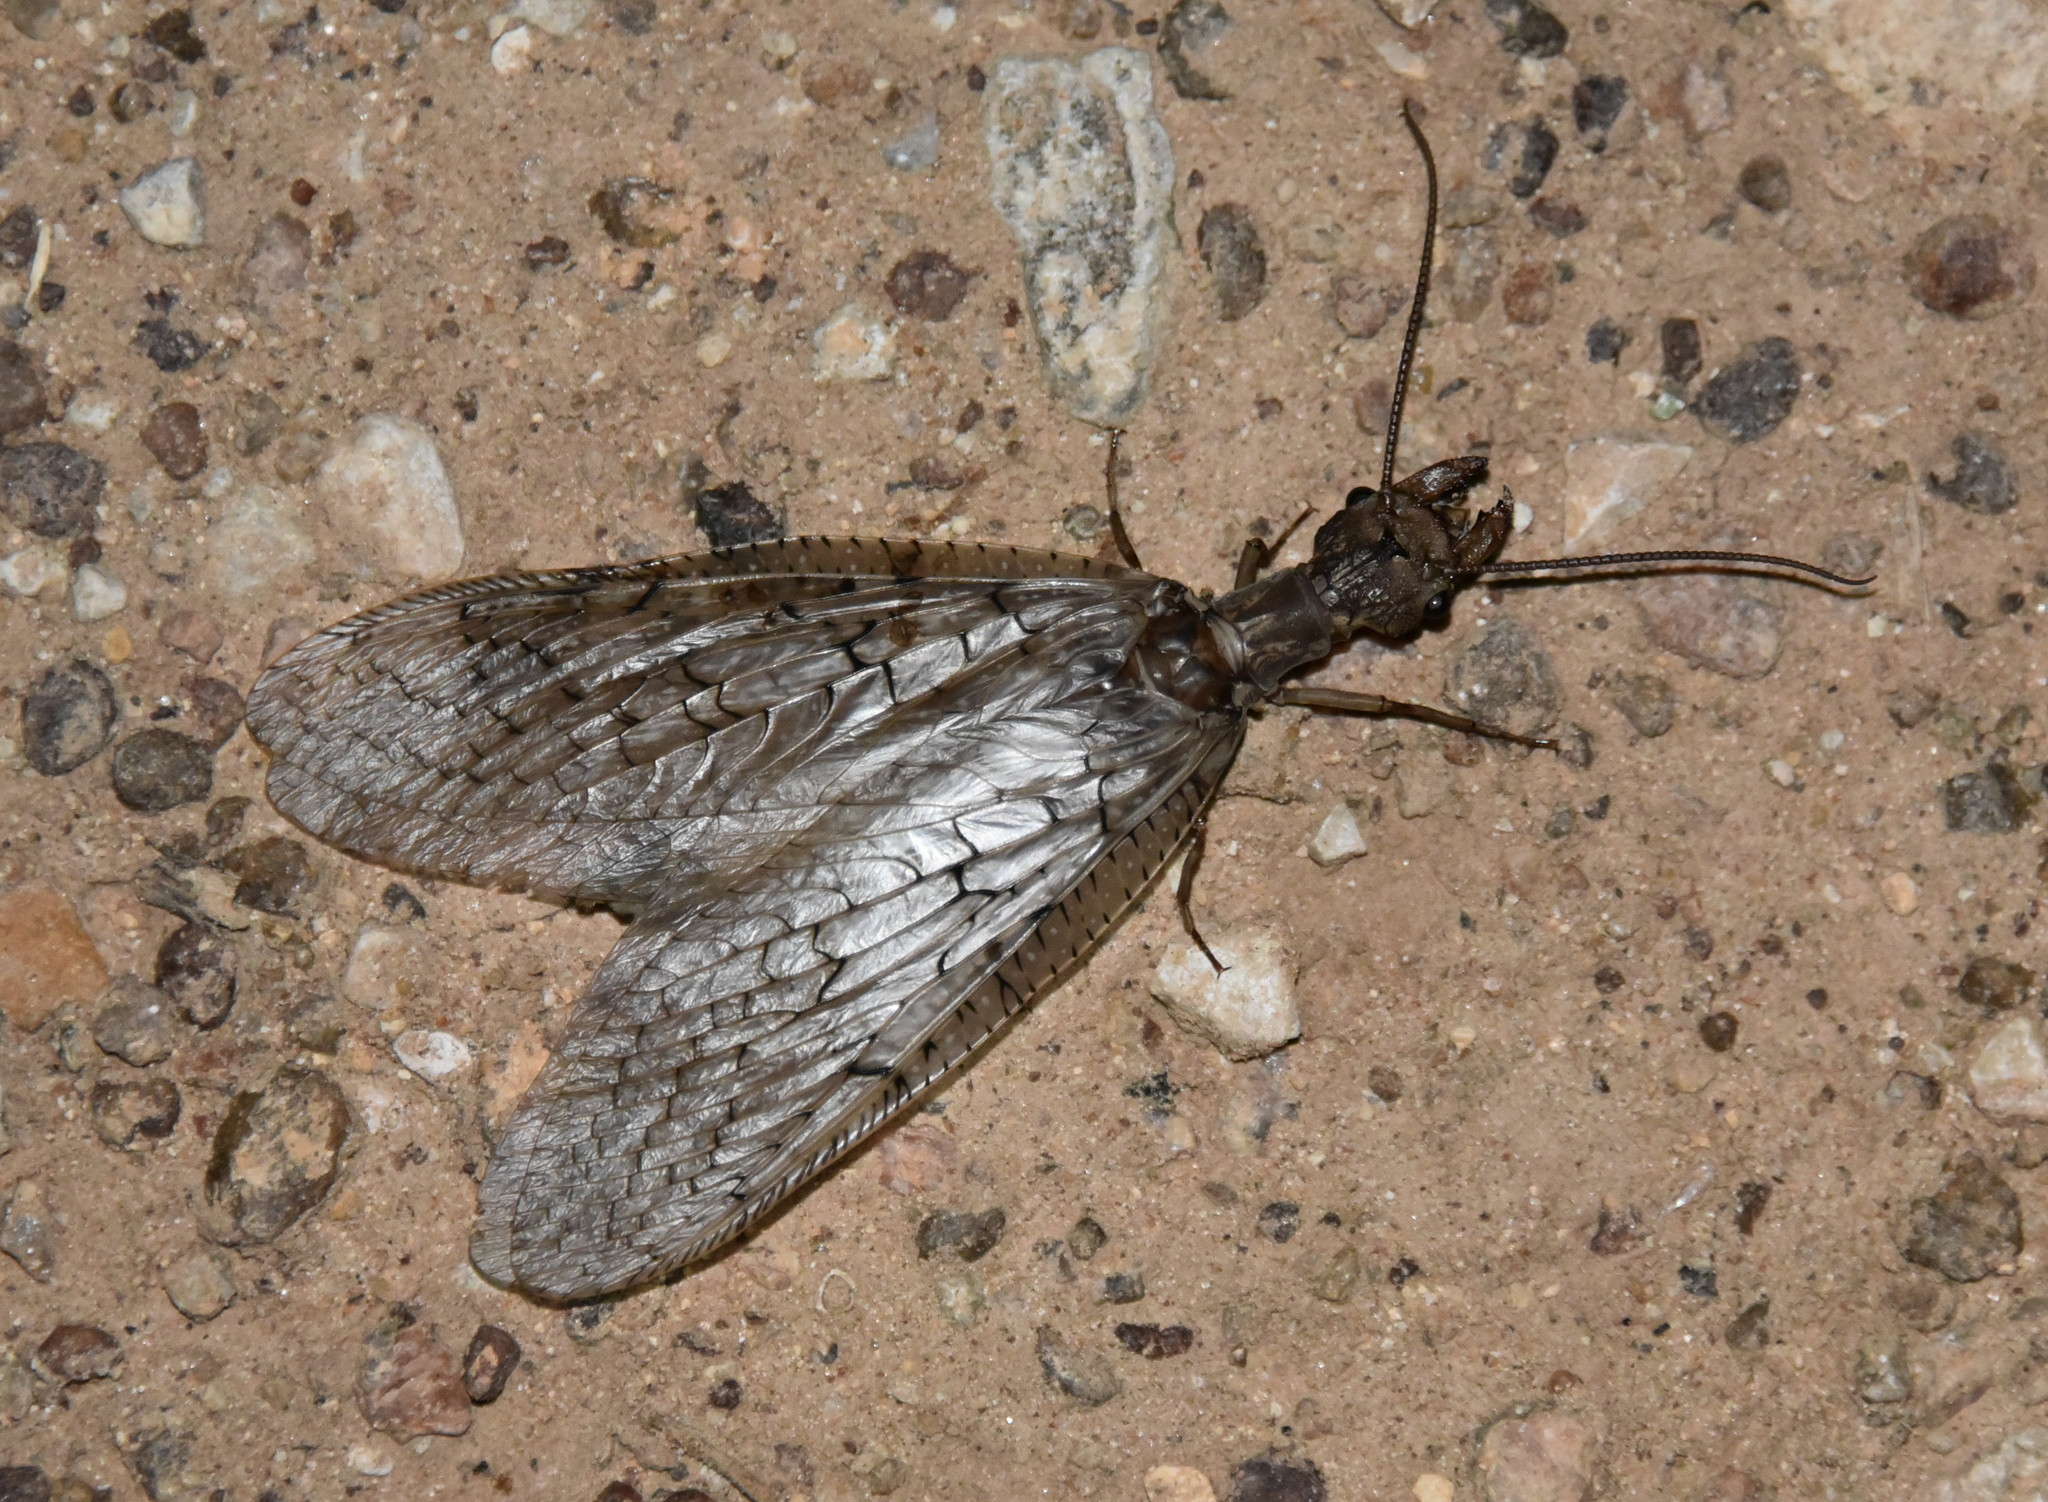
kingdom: Animalia
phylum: Arthropoda
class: Insecta
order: Megaloptera
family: Corydalidae
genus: Corydalus
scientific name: Corydalus cornutus
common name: Dobsonfly
